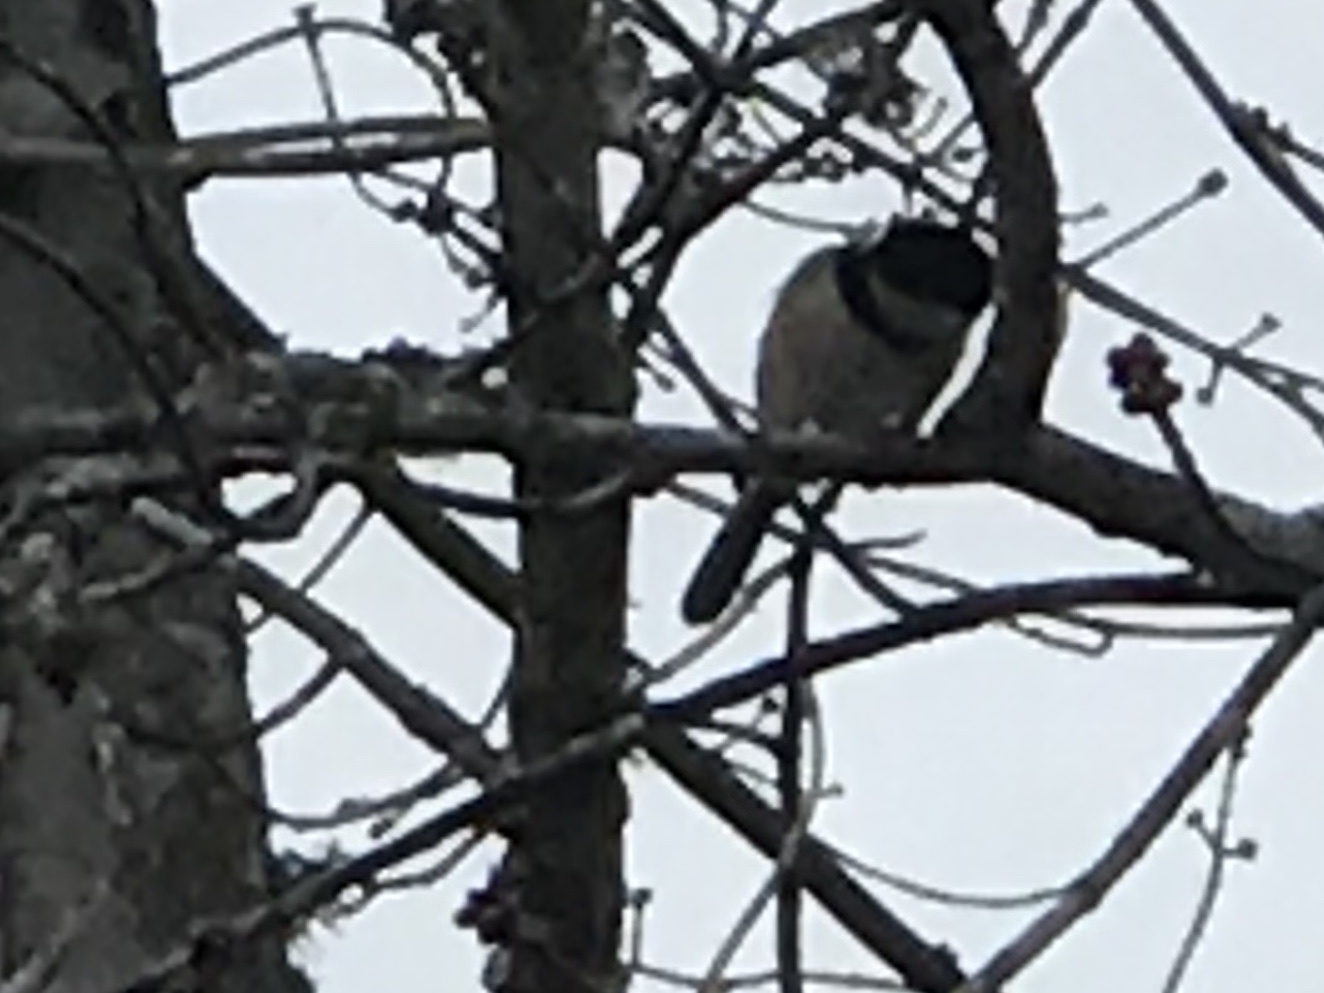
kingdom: Animalia
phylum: Chordata
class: Aves
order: Passeriformes
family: Paridae
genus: Poecile
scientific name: Poecile carolinensis
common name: Carolina chickadee
